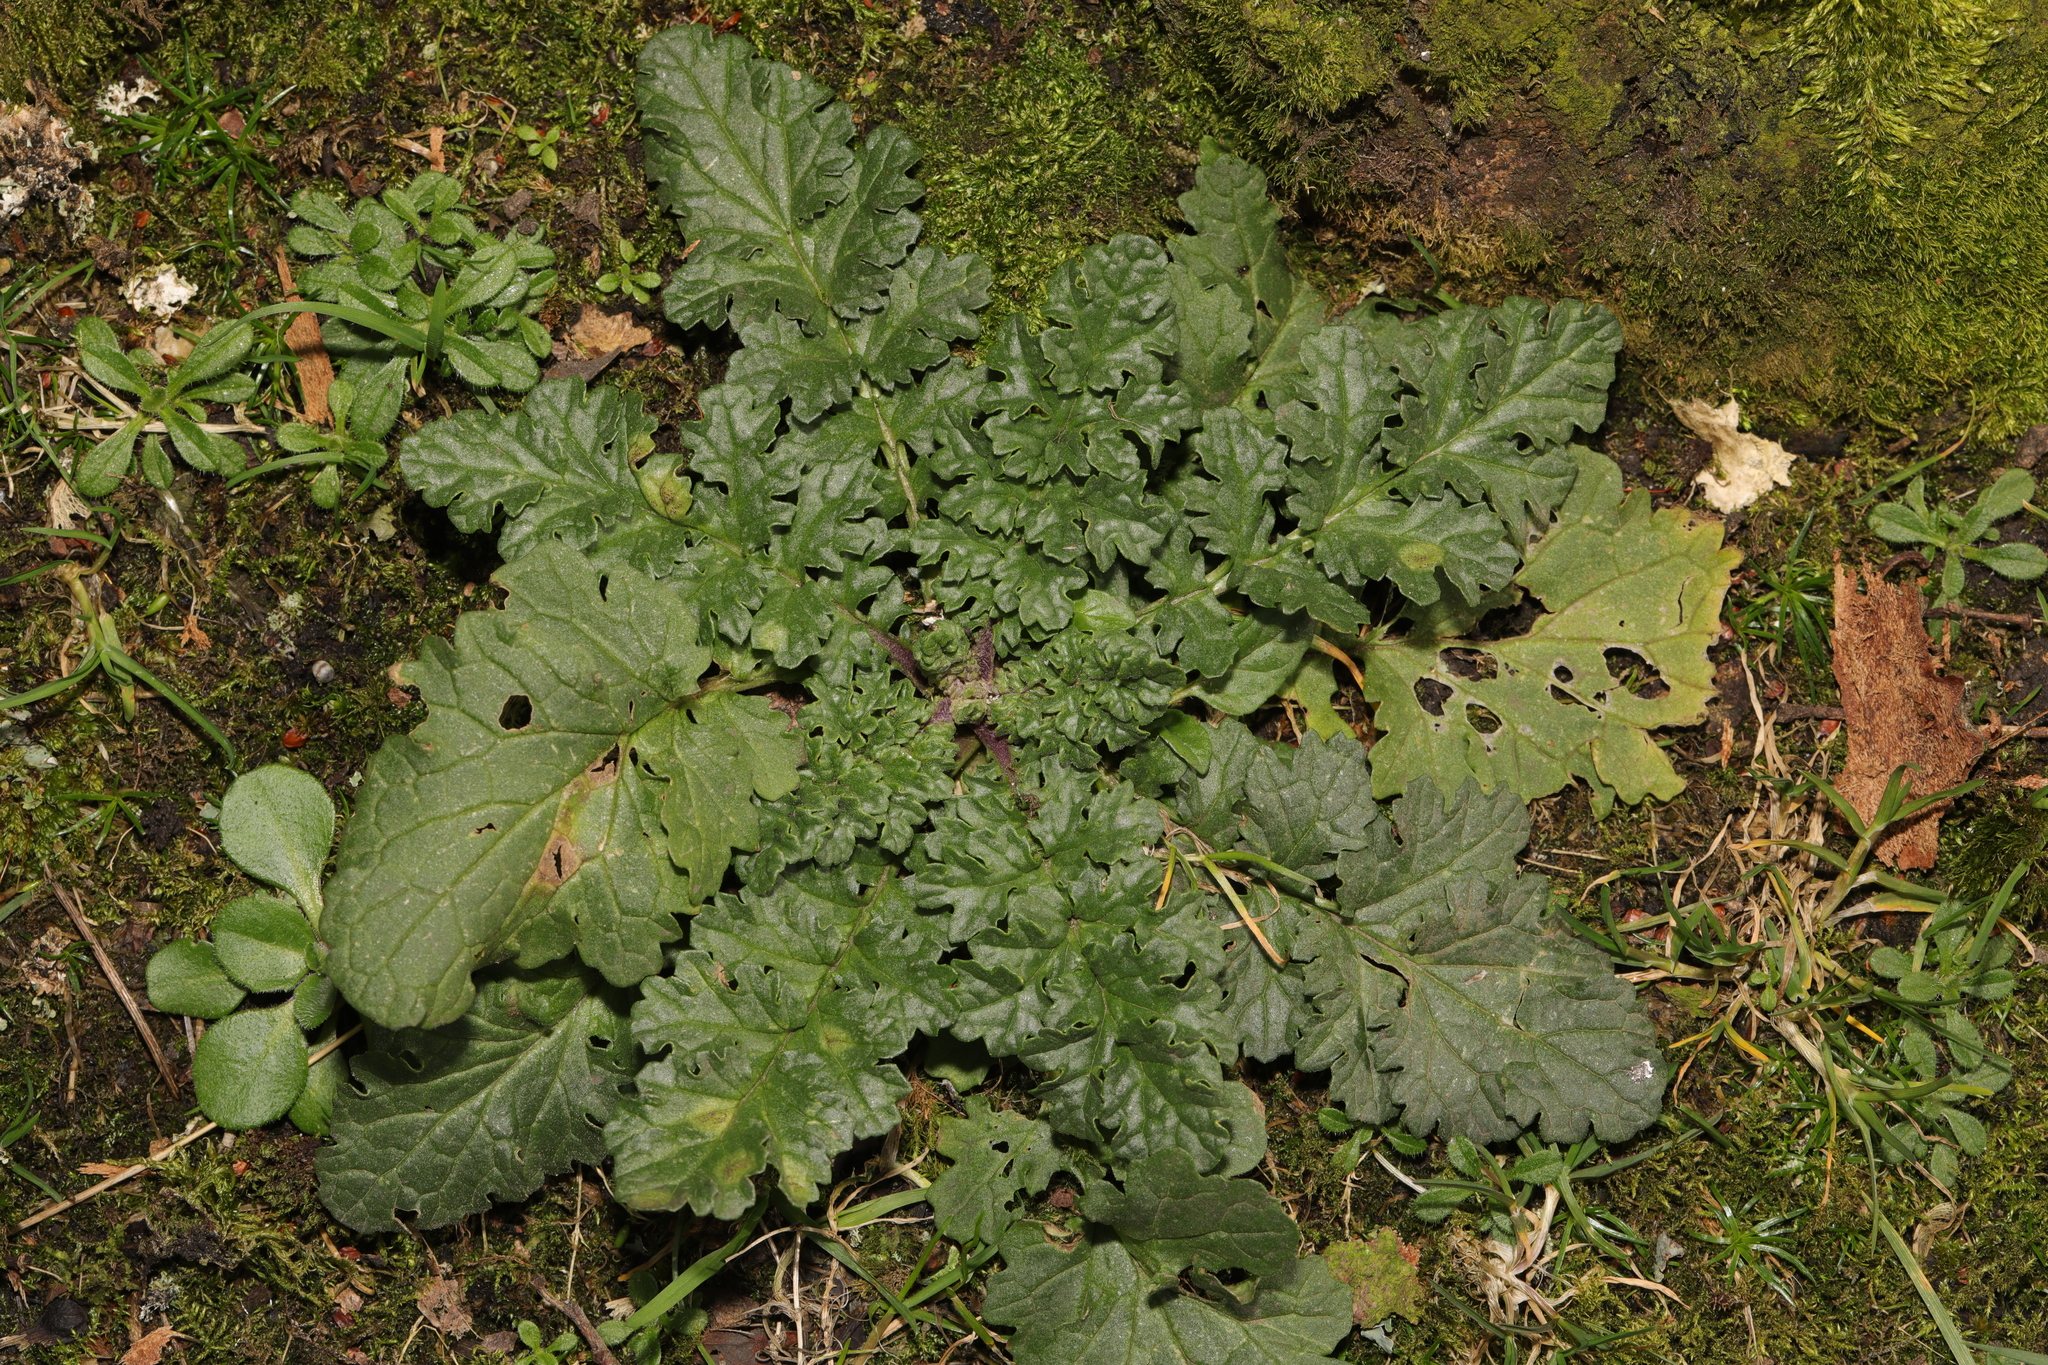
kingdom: Plantae
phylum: Tracheophyta
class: Magnoliopsida
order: Asterales
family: Asteraceae
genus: Jacobaea
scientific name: Jacobaea vulgaris
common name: Stinking willie
